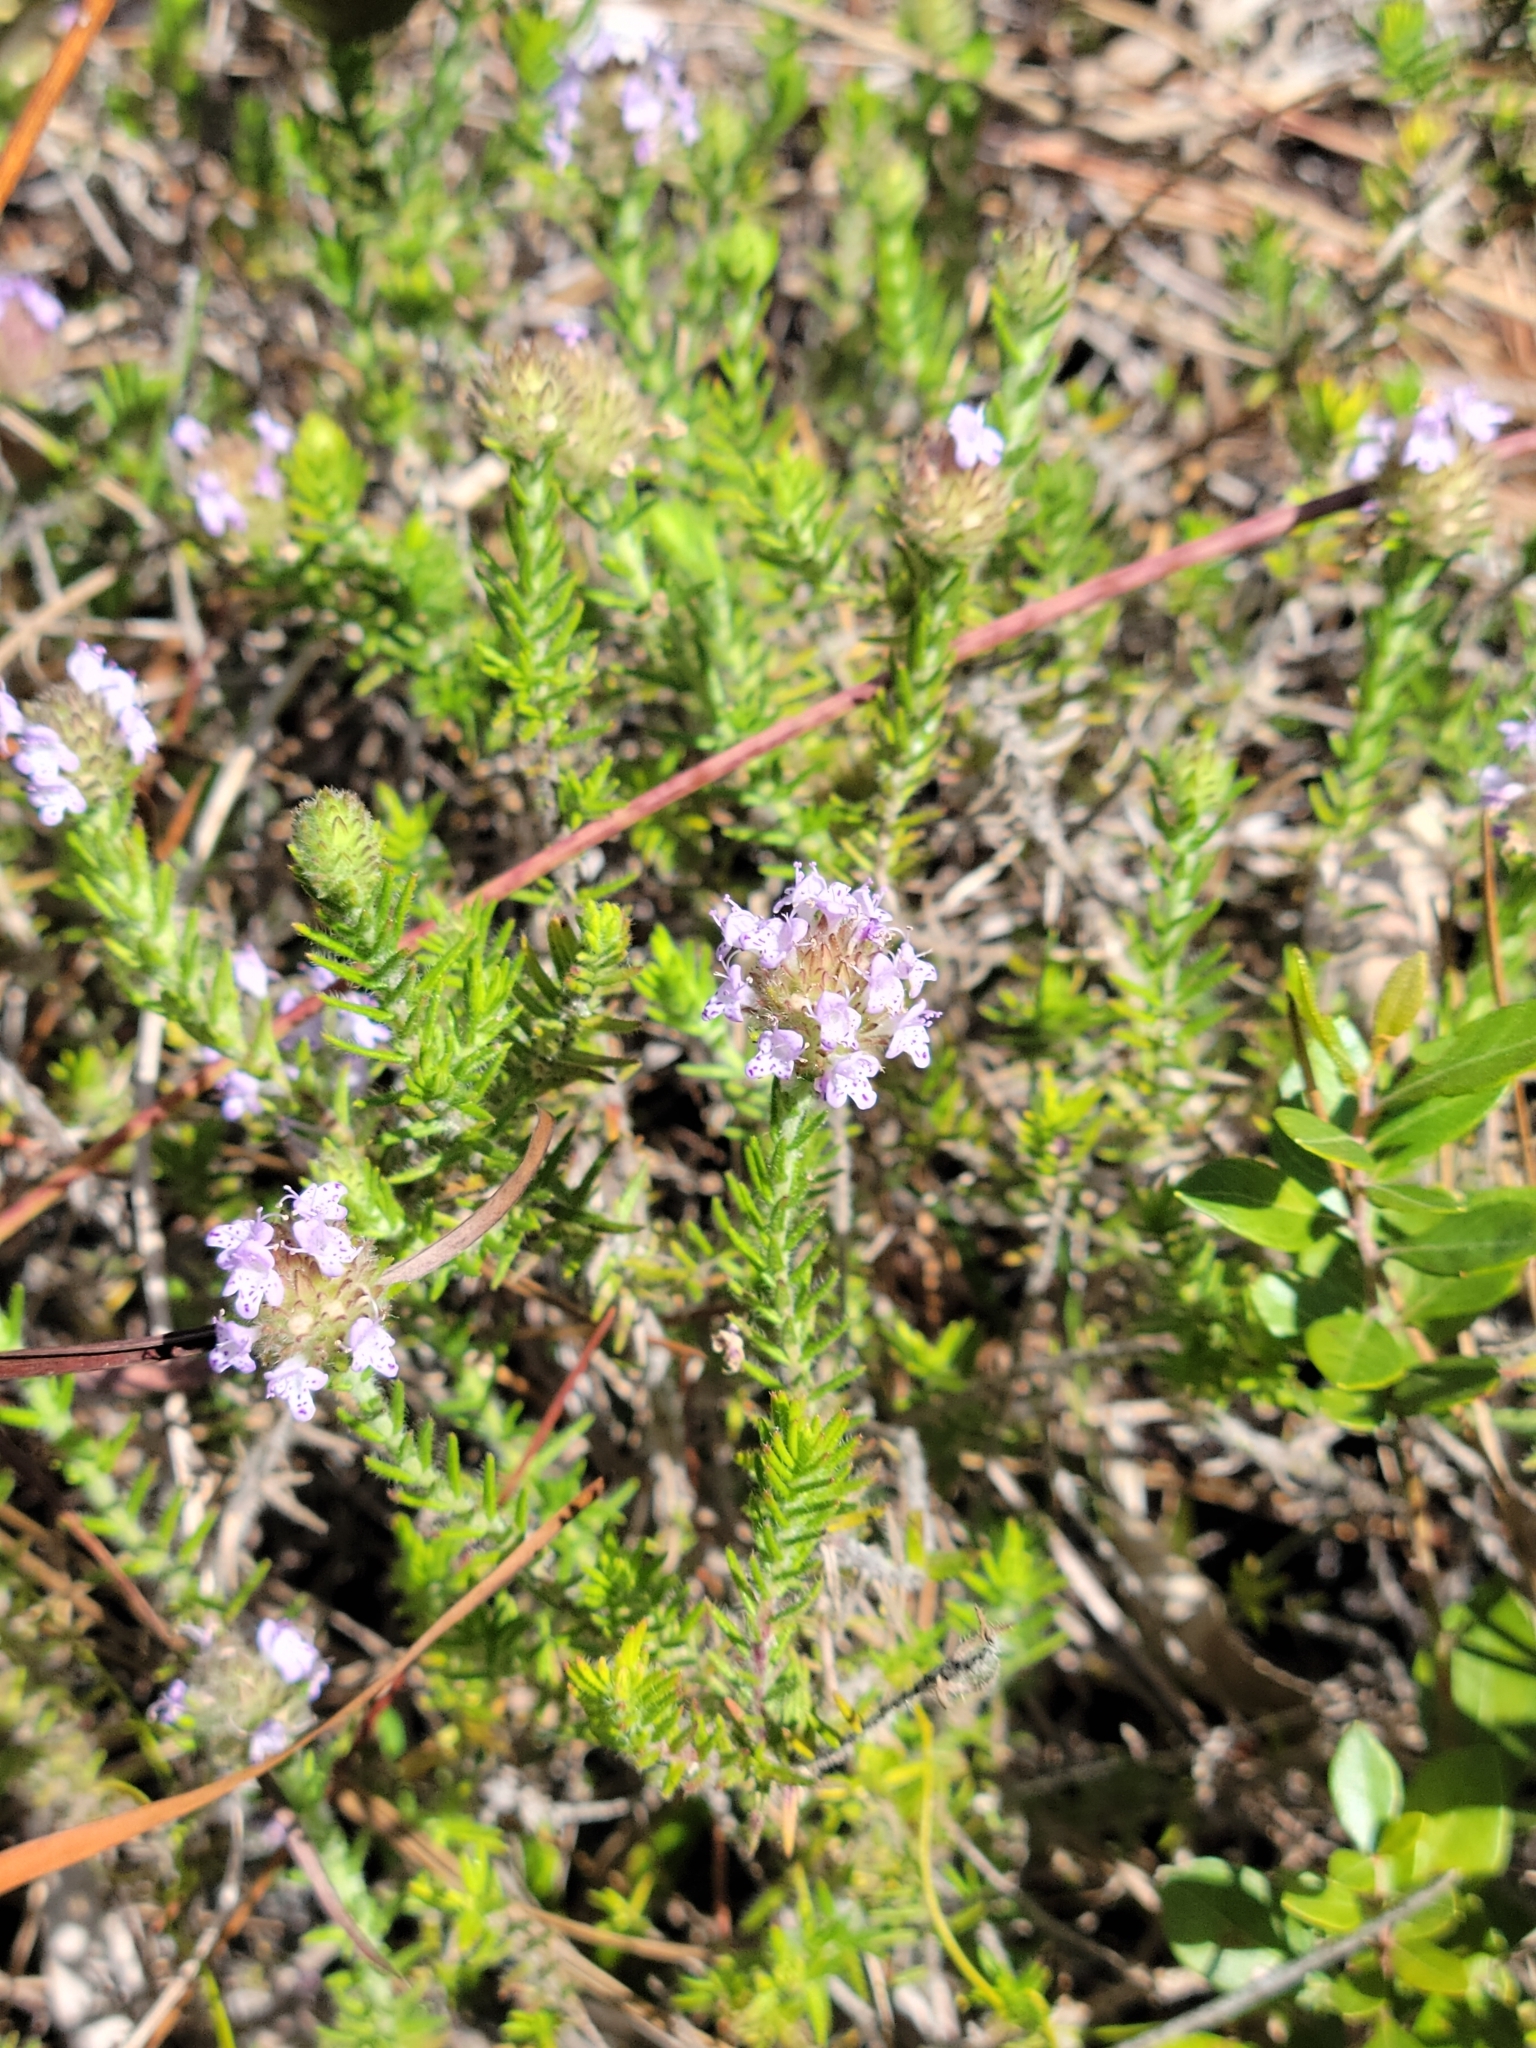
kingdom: Plantae
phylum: Tracheophyta
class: Magnoliopsida
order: Lamiales
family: Lamiaceae
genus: Piloblephis
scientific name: Piloblephis rigida
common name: Wild pennyroyal
